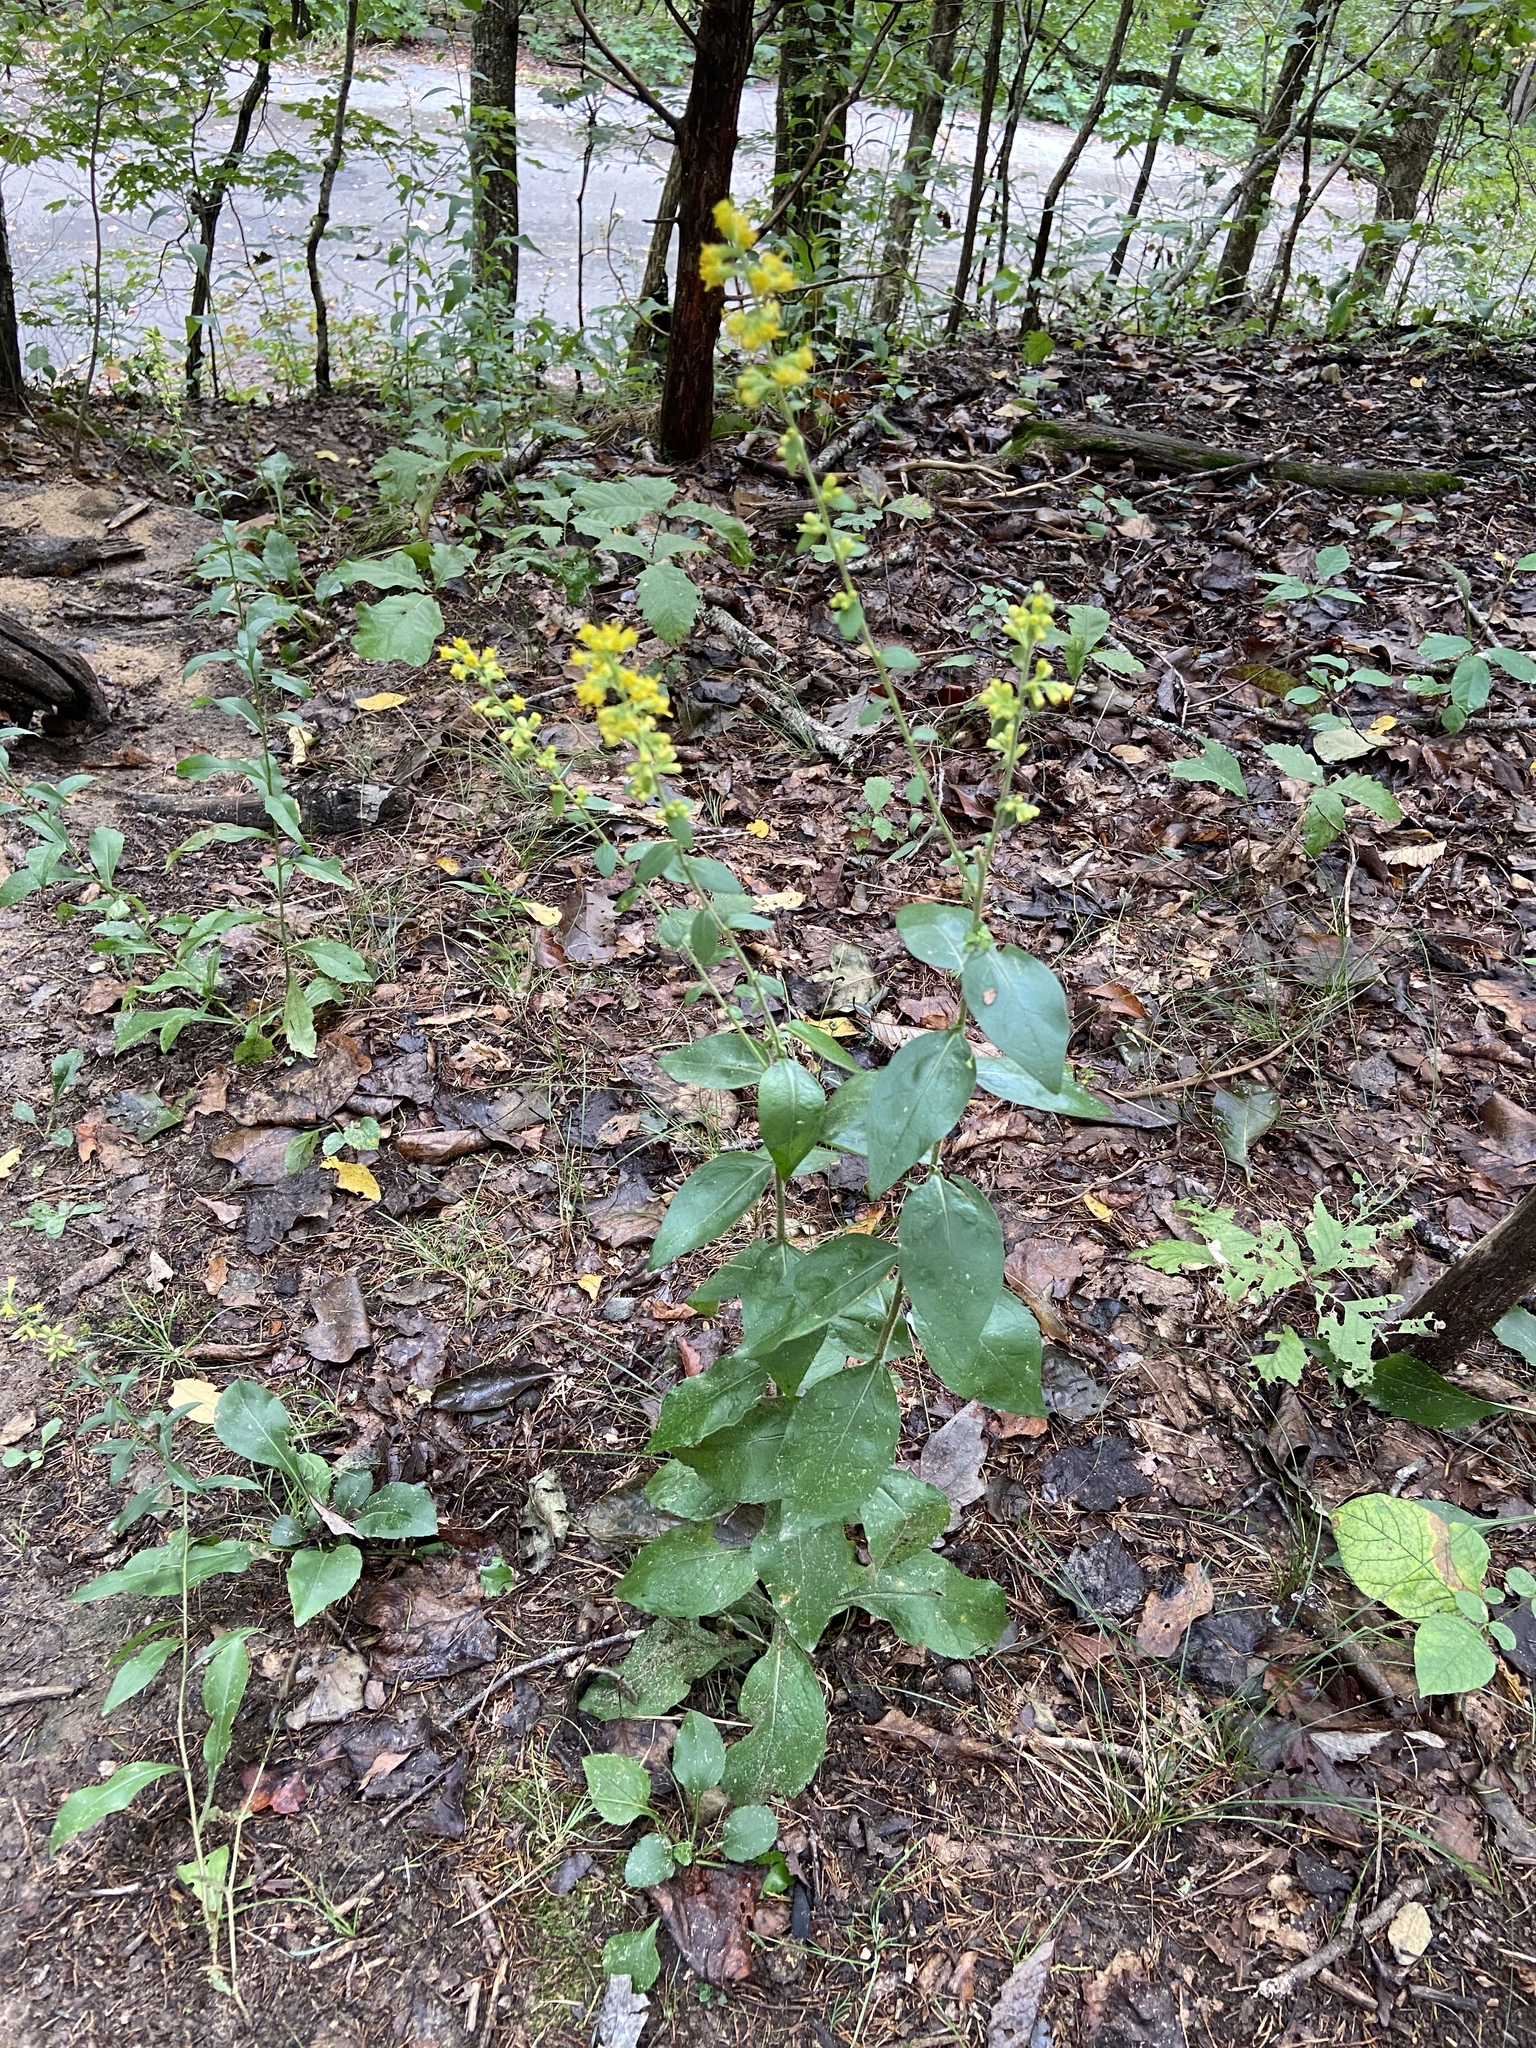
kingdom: Plantae
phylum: Tracheophyta
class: Magnoliopsida
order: Asterales
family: Asteraceae
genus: Solidago
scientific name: Solidago hispida
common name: Hairy goldenrod
